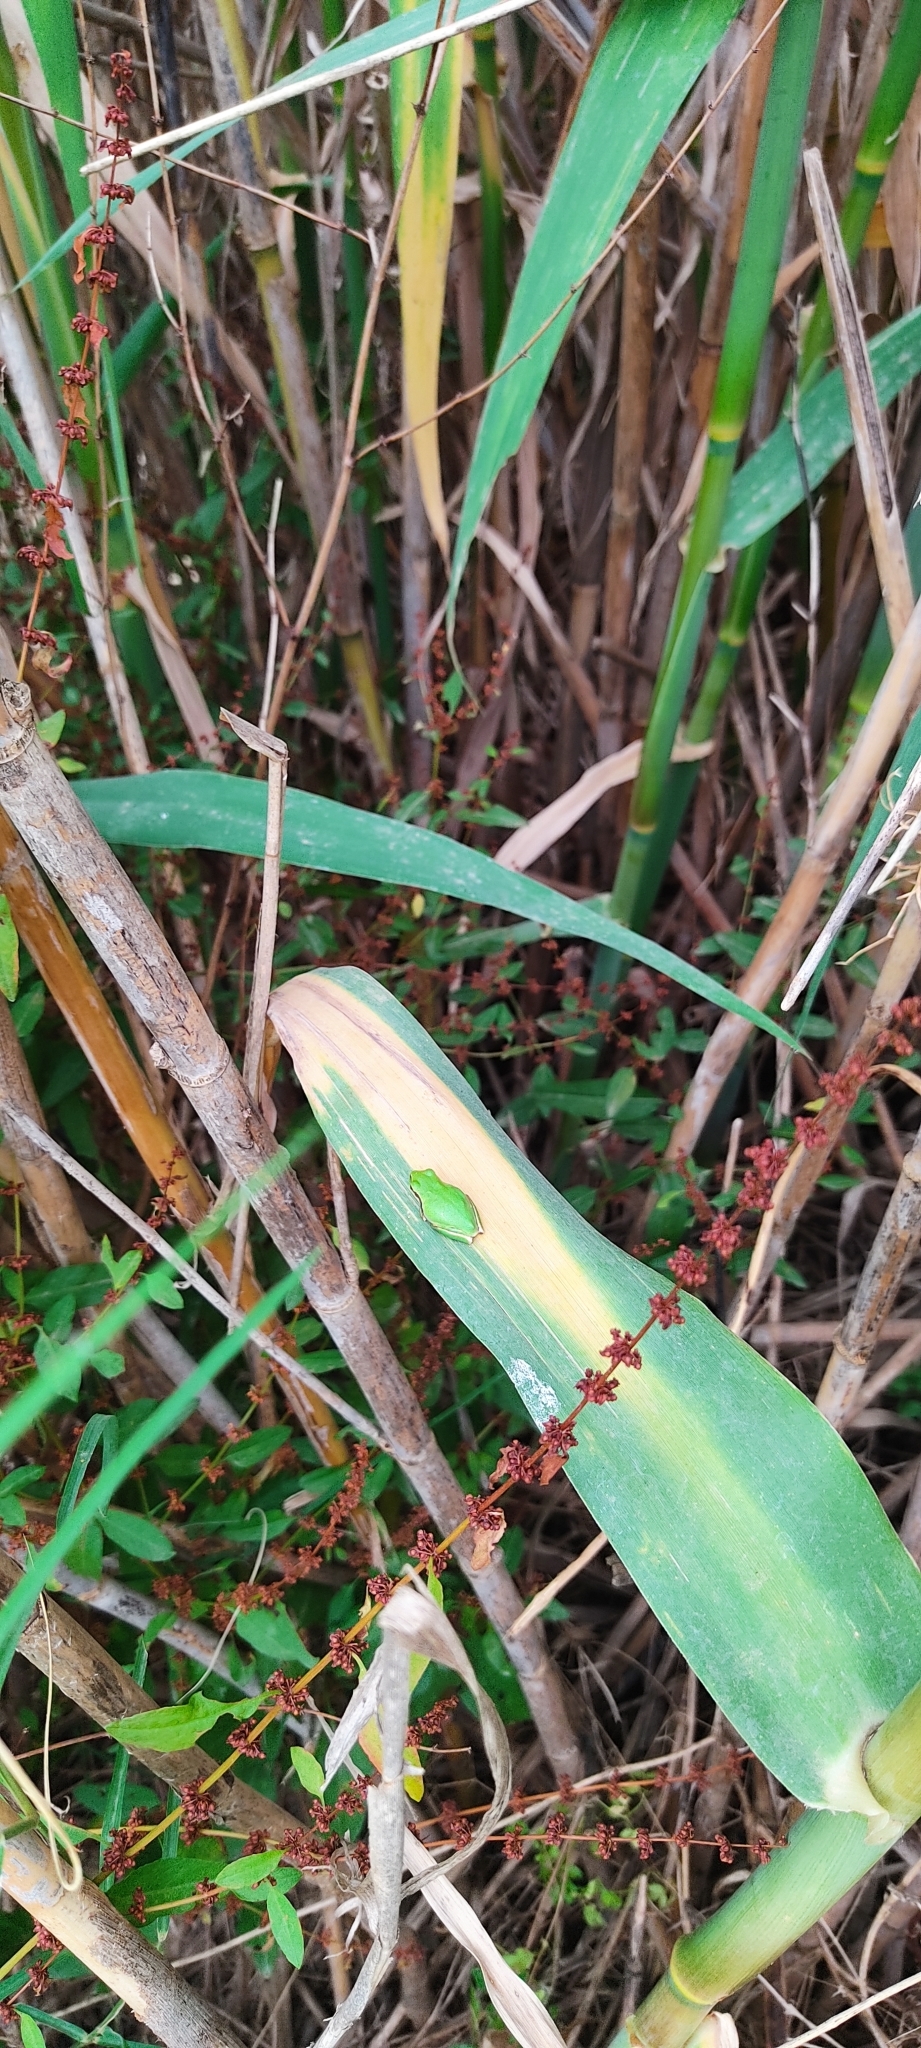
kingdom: Animalia
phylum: Chordata
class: Amphibia
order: Anura
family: Hylidae
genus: Hyla
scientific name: Hyla meridionalis
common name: Stripeless tree frog
